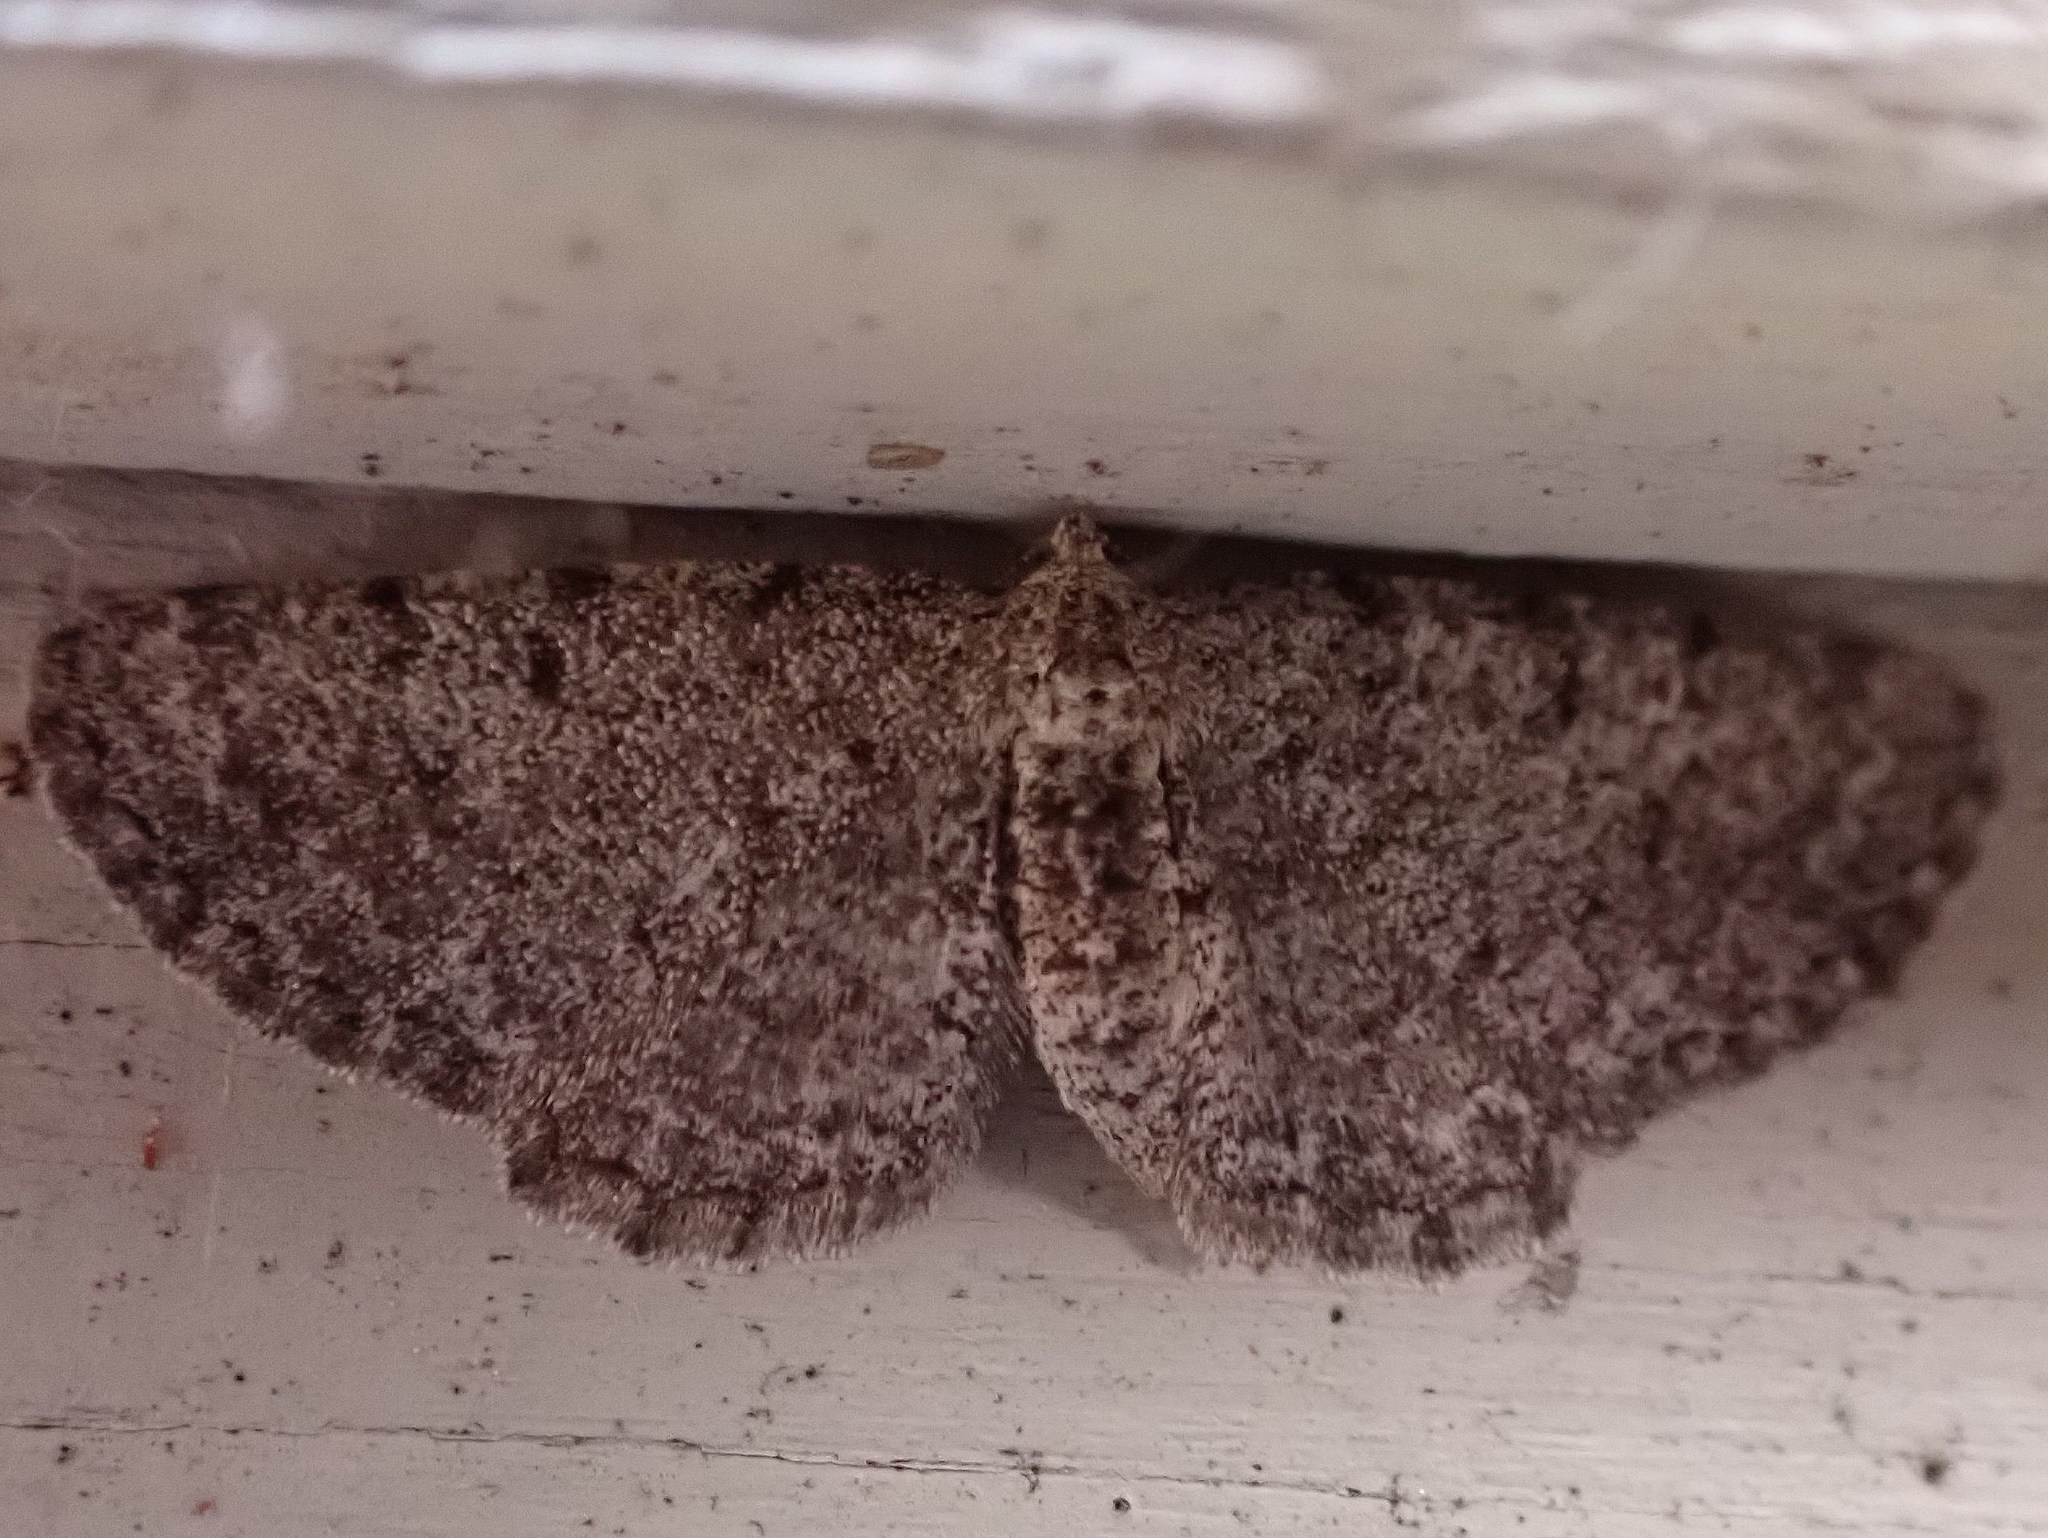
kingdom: Animalia
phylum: Arthropoda
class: Insecta
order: Lepidoptera
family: Geometridae
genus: Aethalura
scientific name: Aethalura intertexta
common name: Four-barred gray
